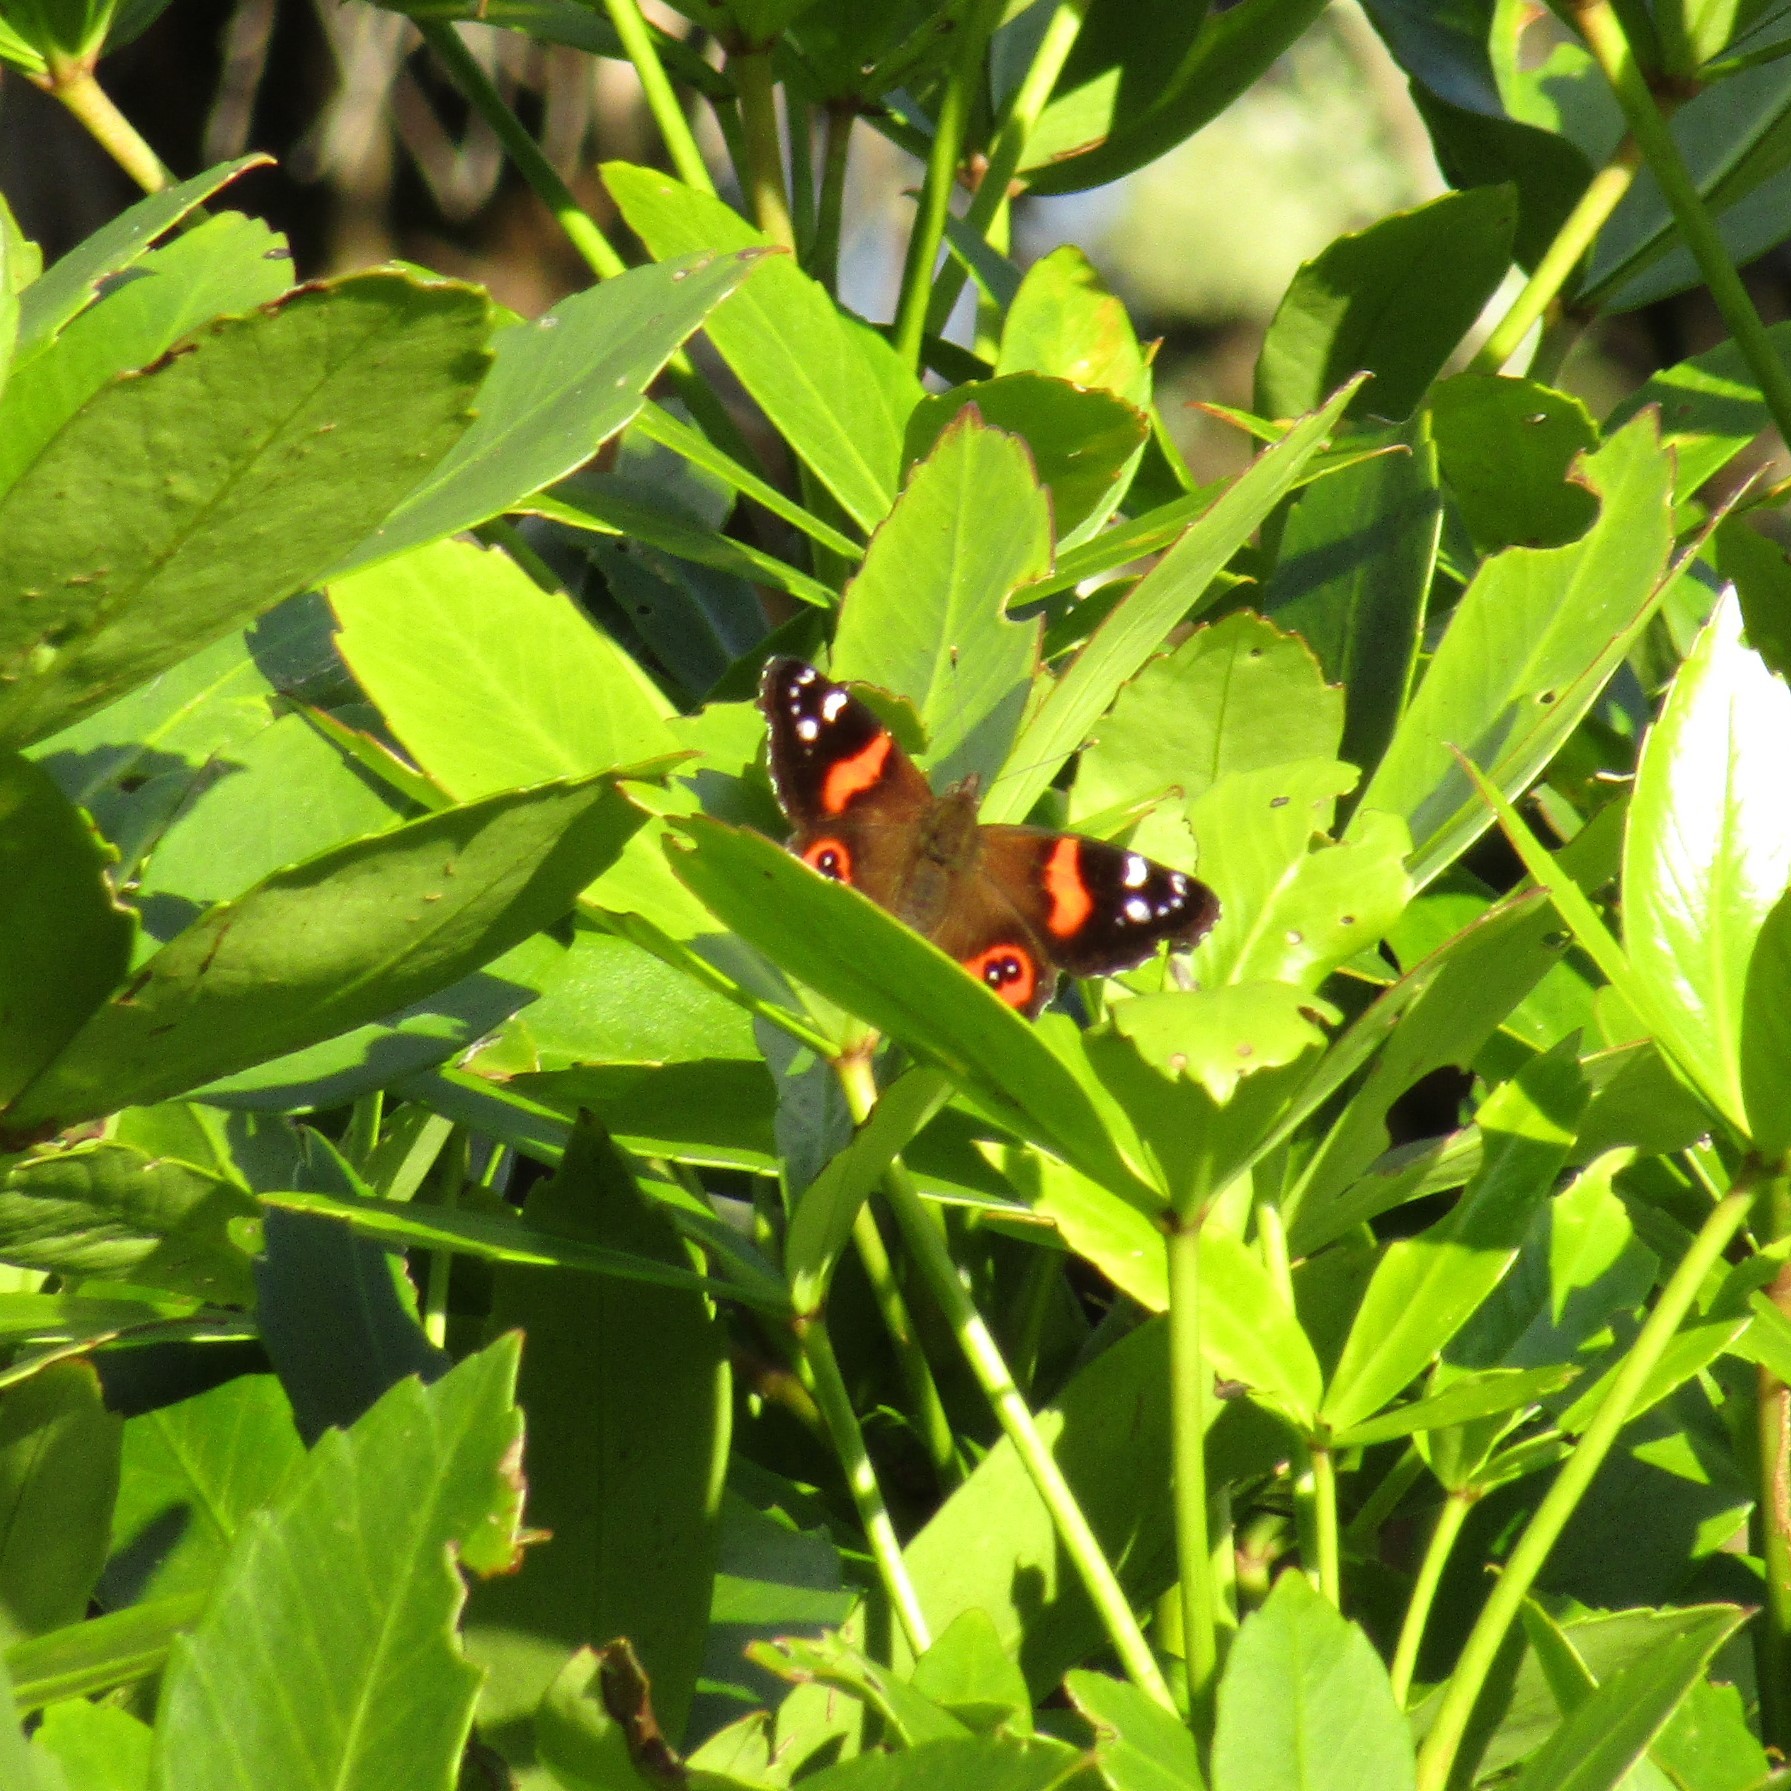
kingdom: Animalia
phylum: Arthropoda
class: Insecta
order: Lepidoptera
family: Nymphalidae
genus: Vanessa
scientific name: Vanessa gonerilla
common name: New zealand red admiral
